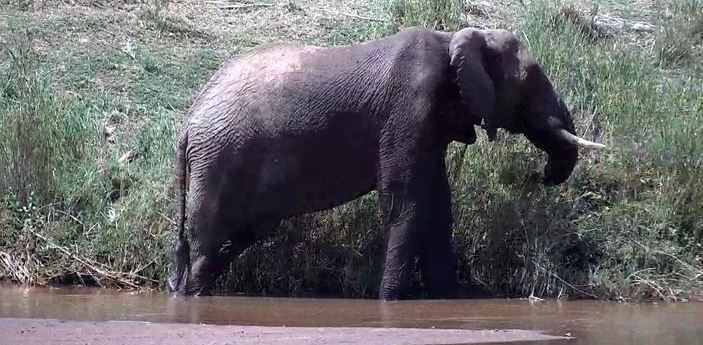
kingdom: Animalia
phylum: Chordata
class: Mammalia
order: Proboscidea
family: Elephantidae
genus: Loxodonta
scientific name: Loxodonta africana
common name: African elephant
